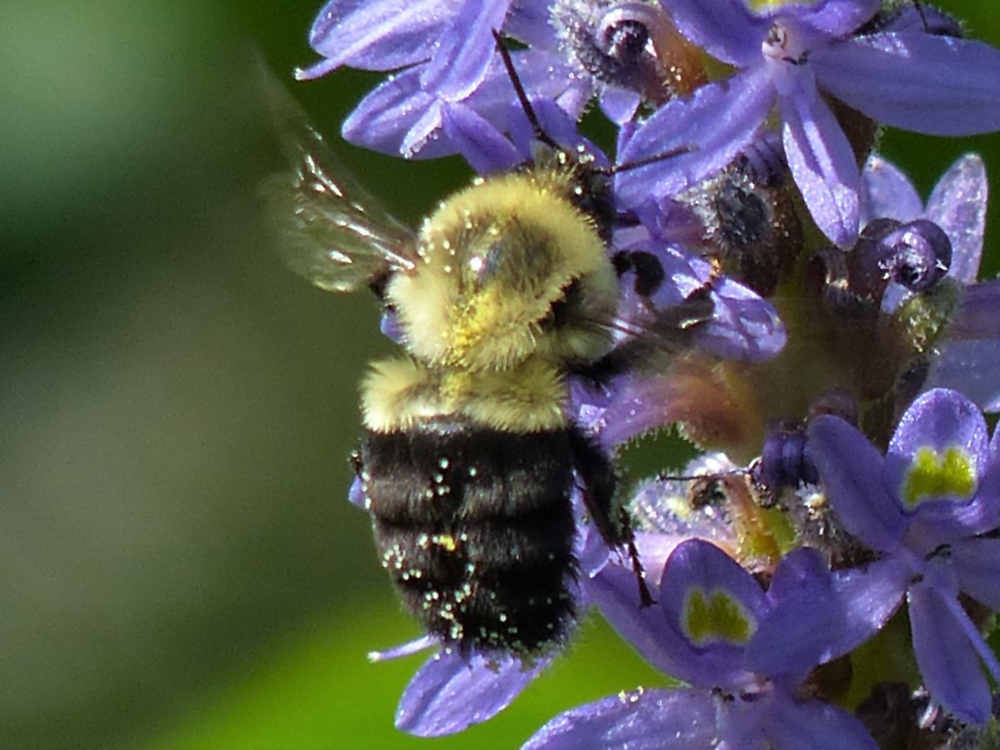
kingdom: Animalia
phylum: Arthropoda
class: Insecta
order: Hymenoptera
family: Apidae
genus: Bombus
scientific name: Bombus impatiens
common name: Common eastern bumble bee
